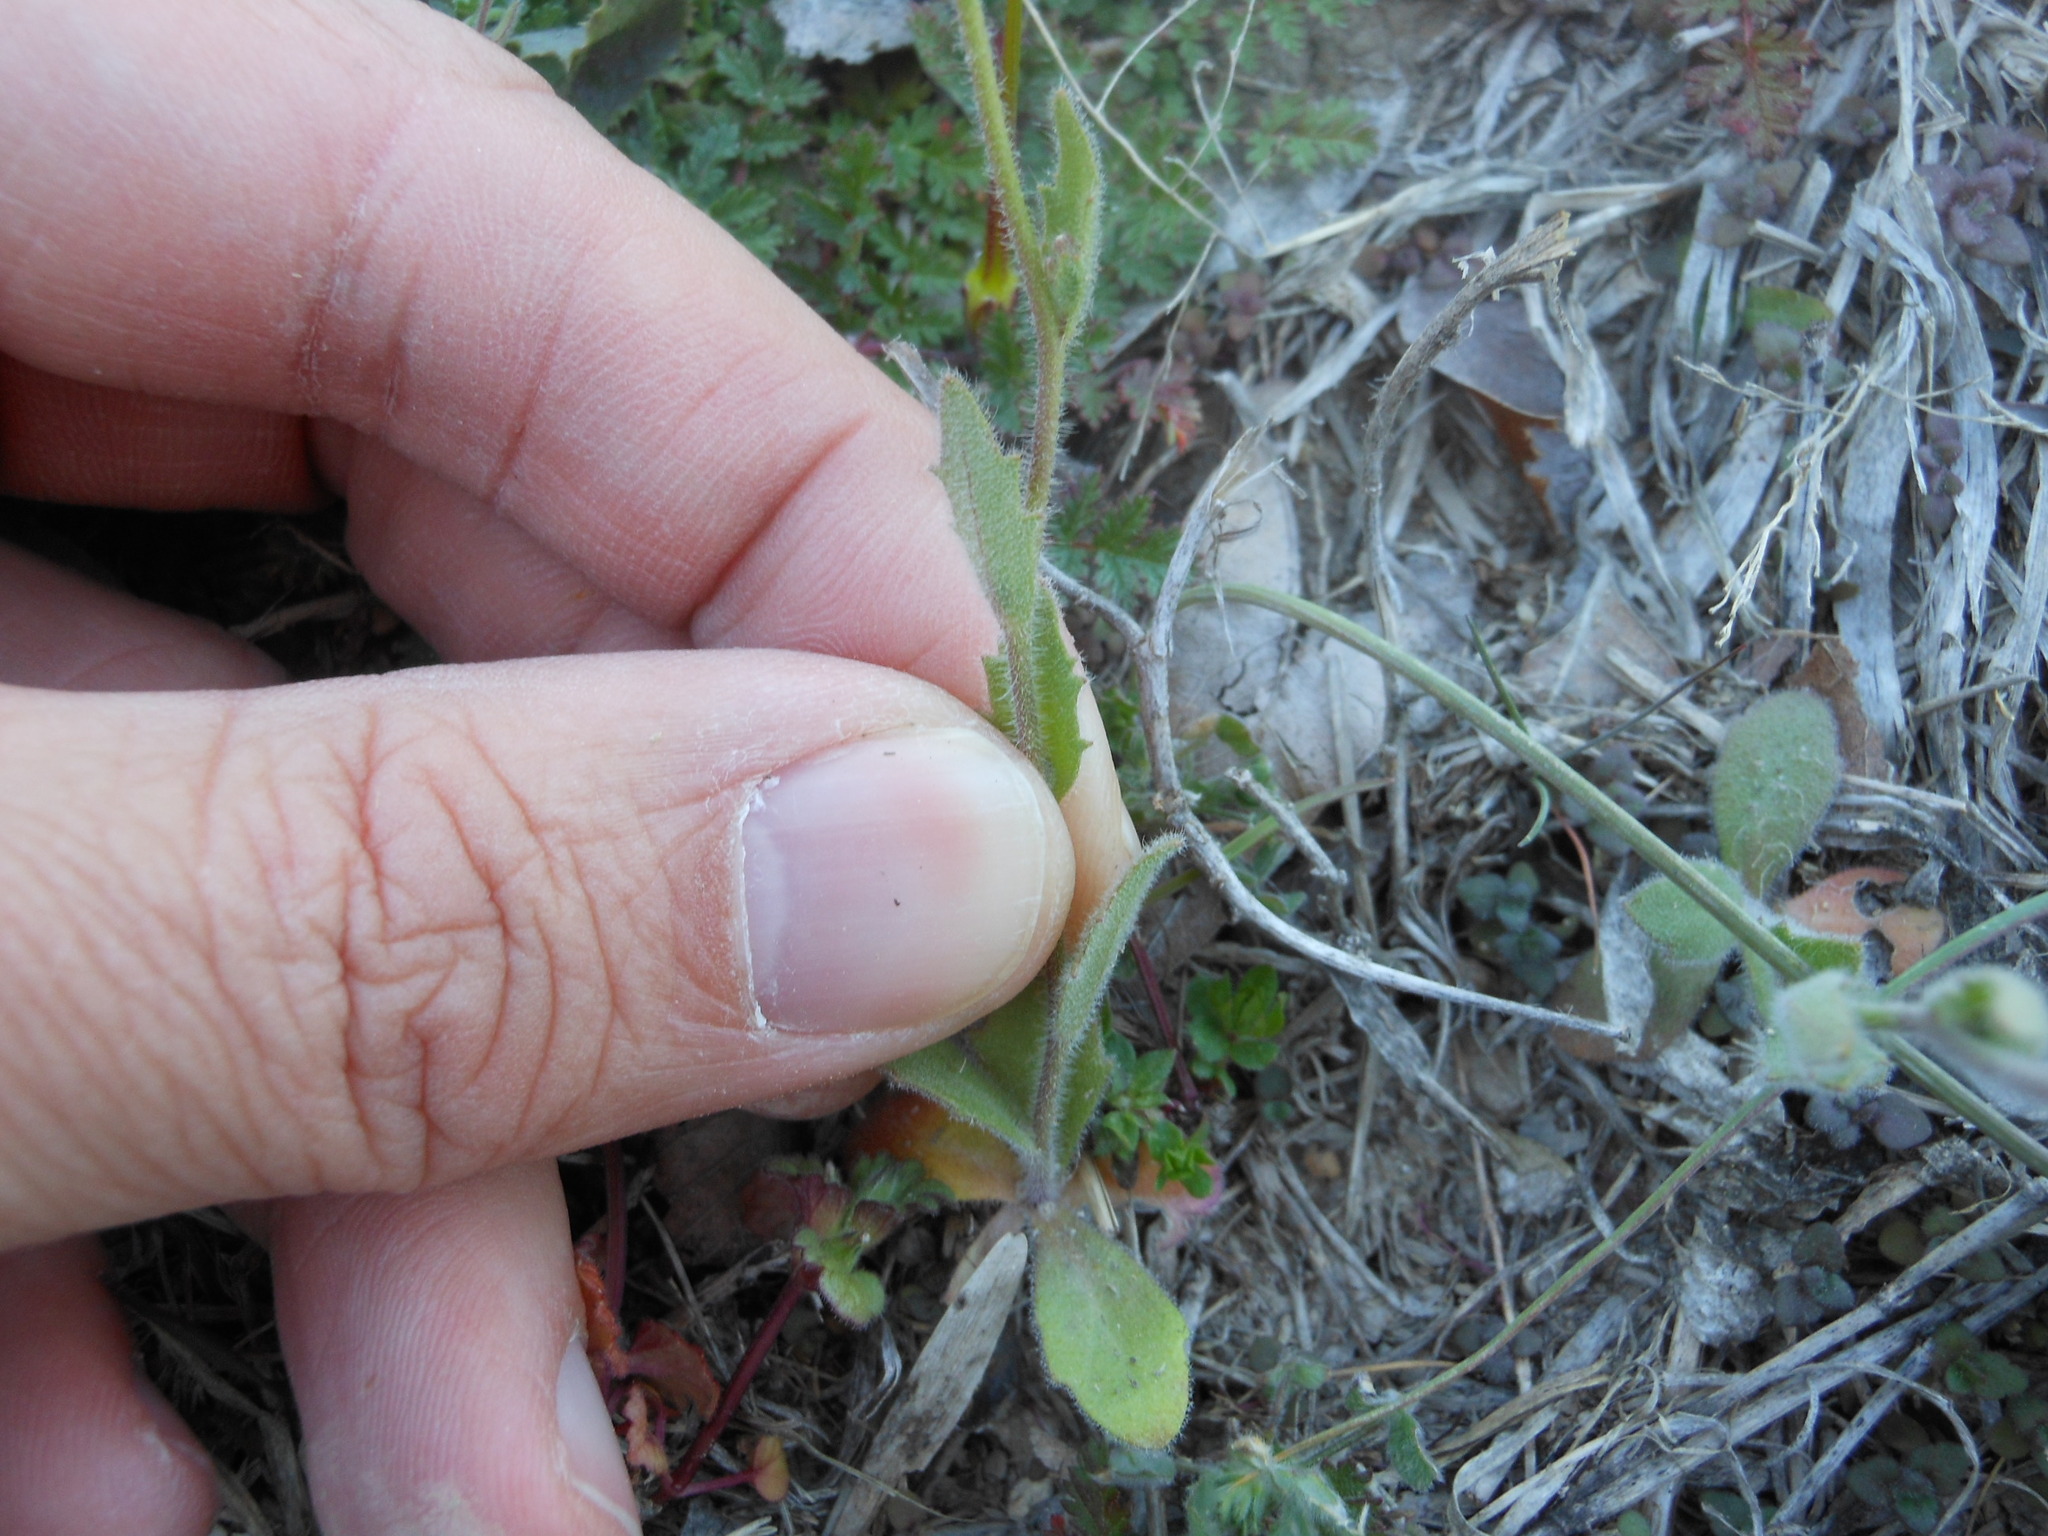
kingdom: Plantae
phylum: Tracheophyta
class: Magnoliopsida
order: Brassicales
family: Brassicaceae
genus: Tomostima
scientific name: Tomostima platycarpa
